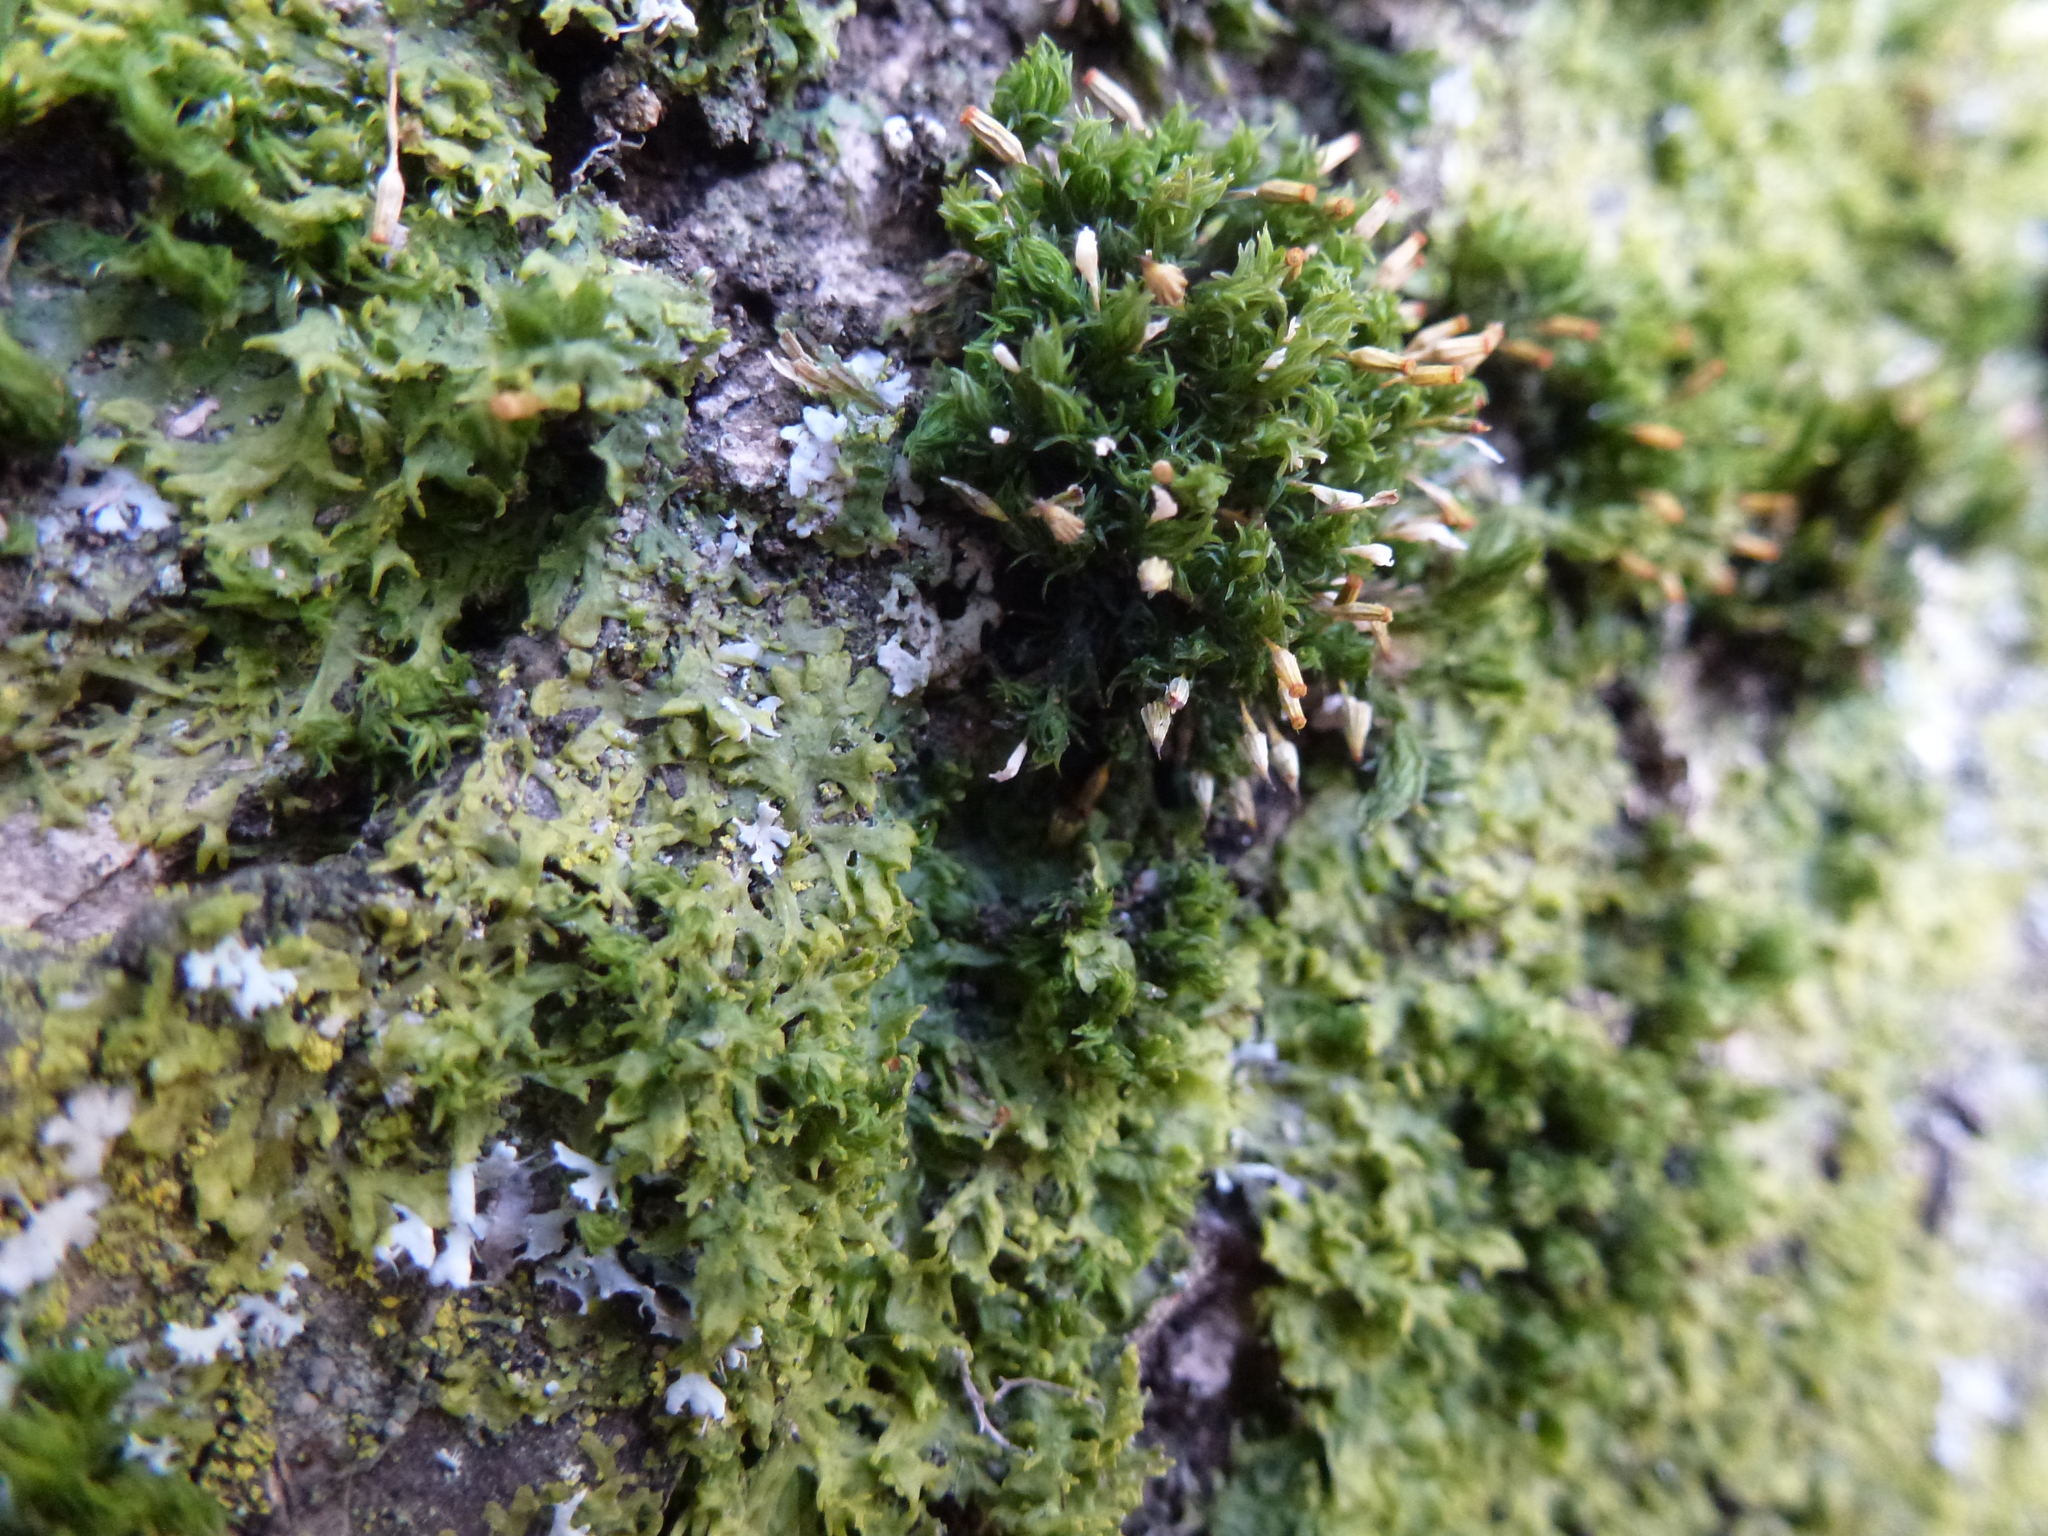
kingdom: Plantae
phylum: Bryophyta
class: Bryopsida
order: Orthotrichales
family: Orthotrichaceae
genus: Orthotrichum
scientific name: Orthotrichum pulchellum
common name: Elegant bristle-moss
